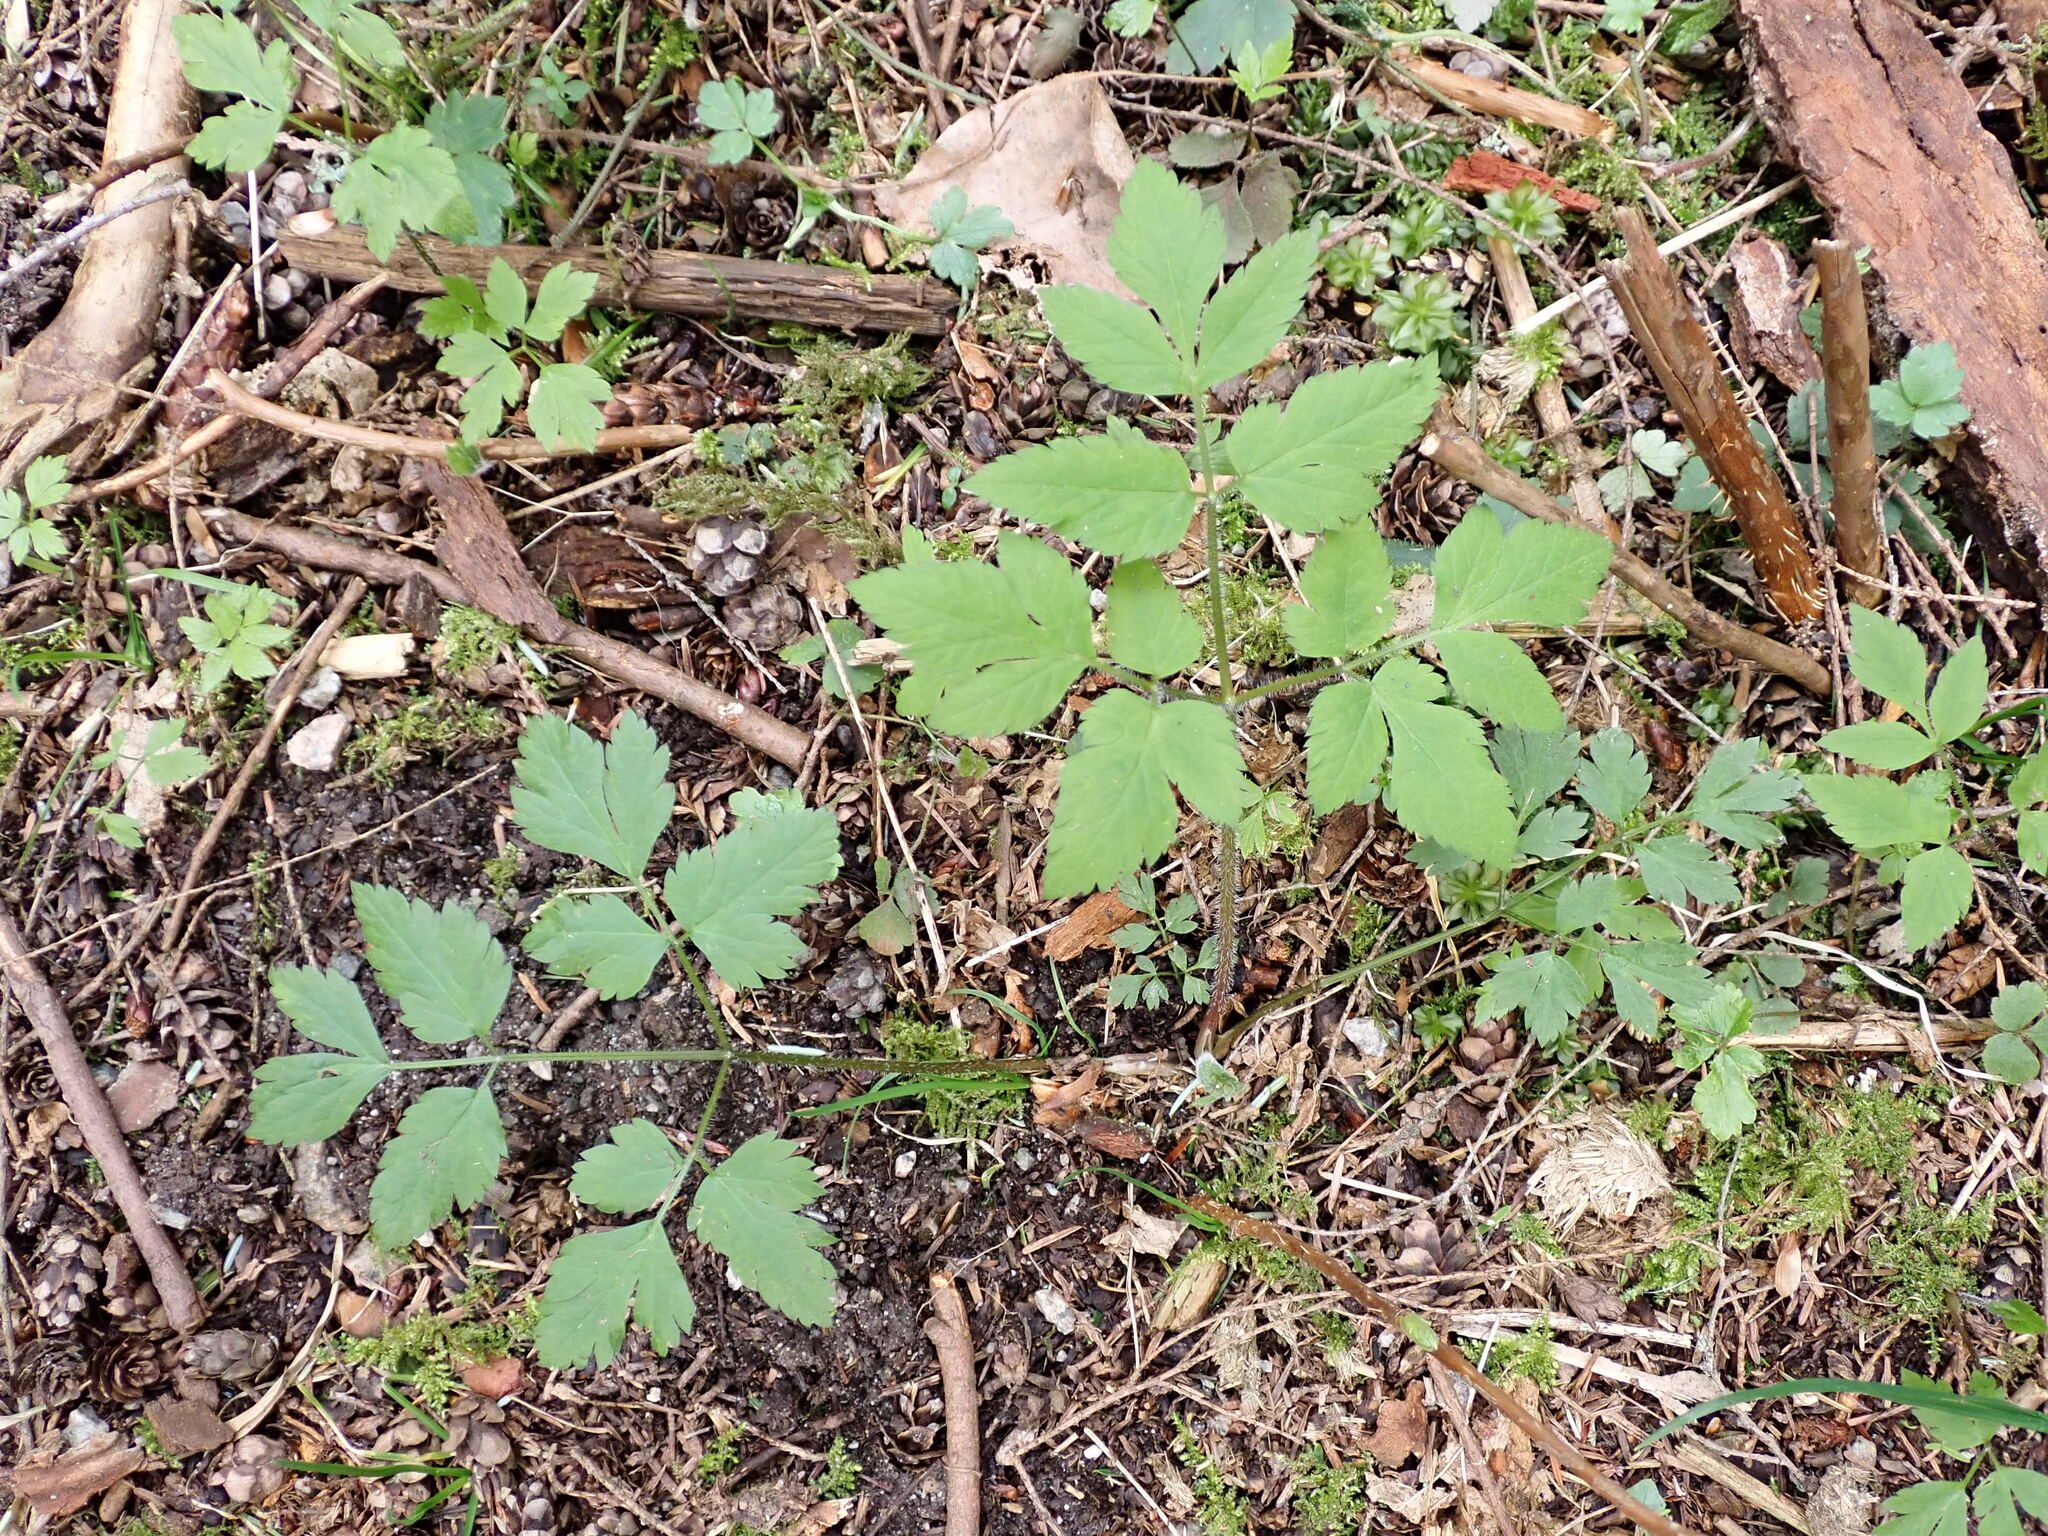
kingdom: Plantae
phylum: Tracheophyta
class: Magnoliopsida
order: Apiales
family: Apiaceae
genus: Osmorhiza
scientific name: Osmorhiza berteroi
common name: Mountain sweet cicely
